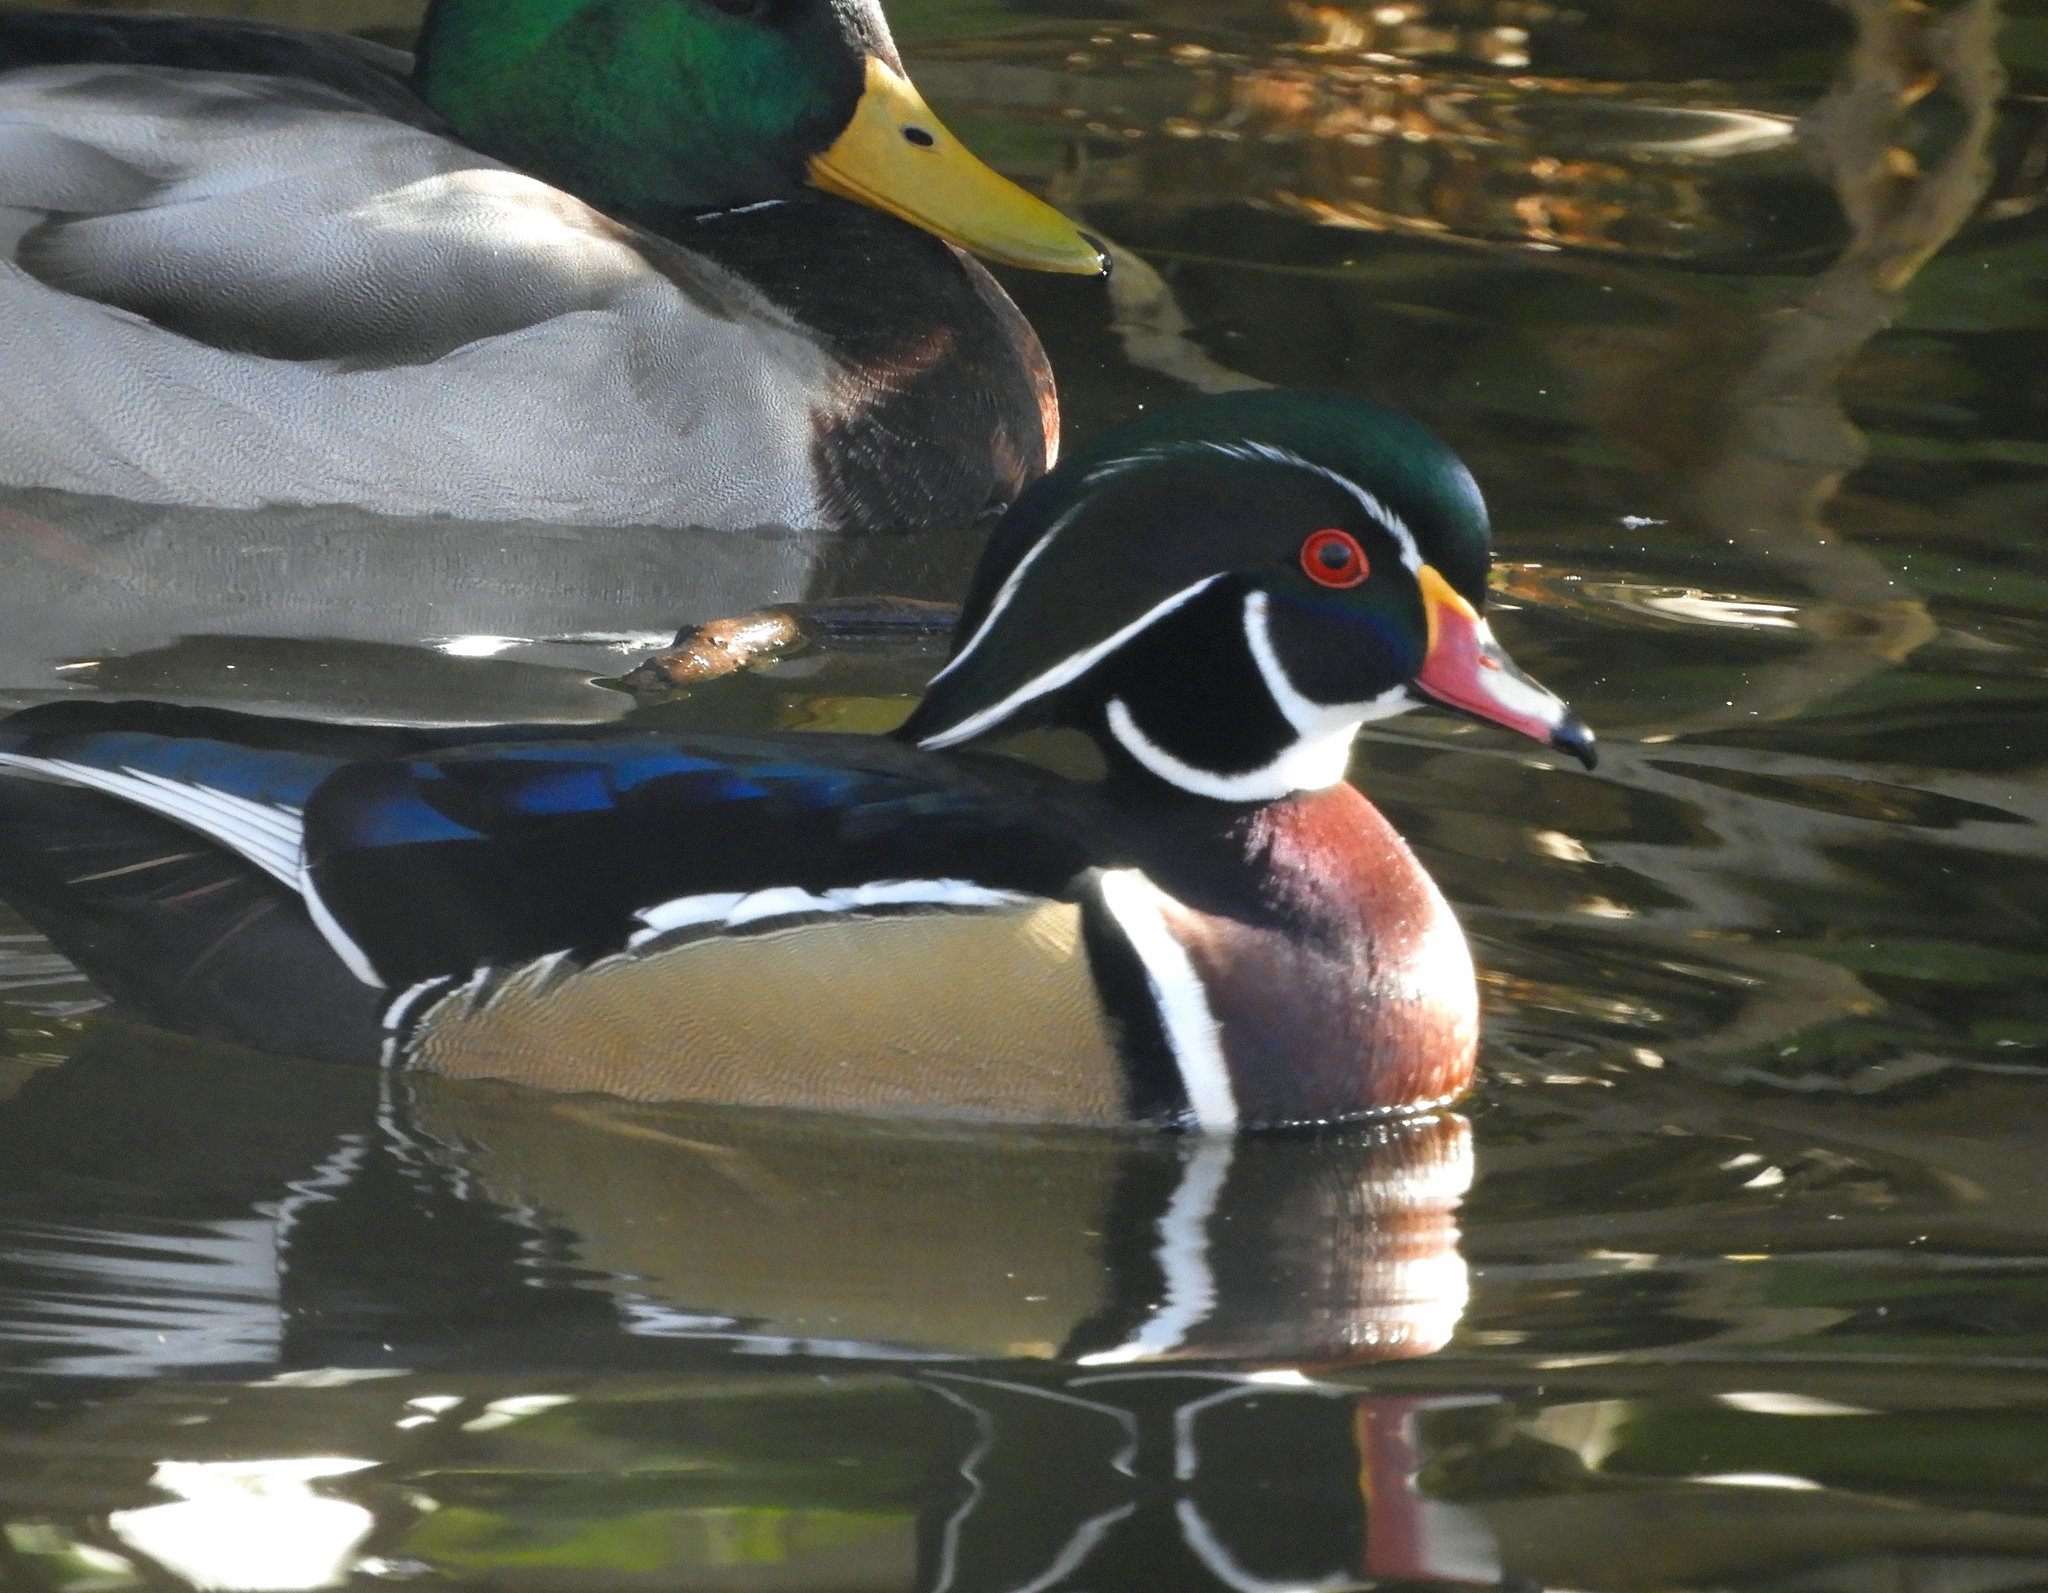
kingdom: Animalia
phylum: Chordata
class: Aves
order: Anseriformes
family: Anatidae
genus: Aix
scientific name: Aix sponsa
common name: Wood duck
